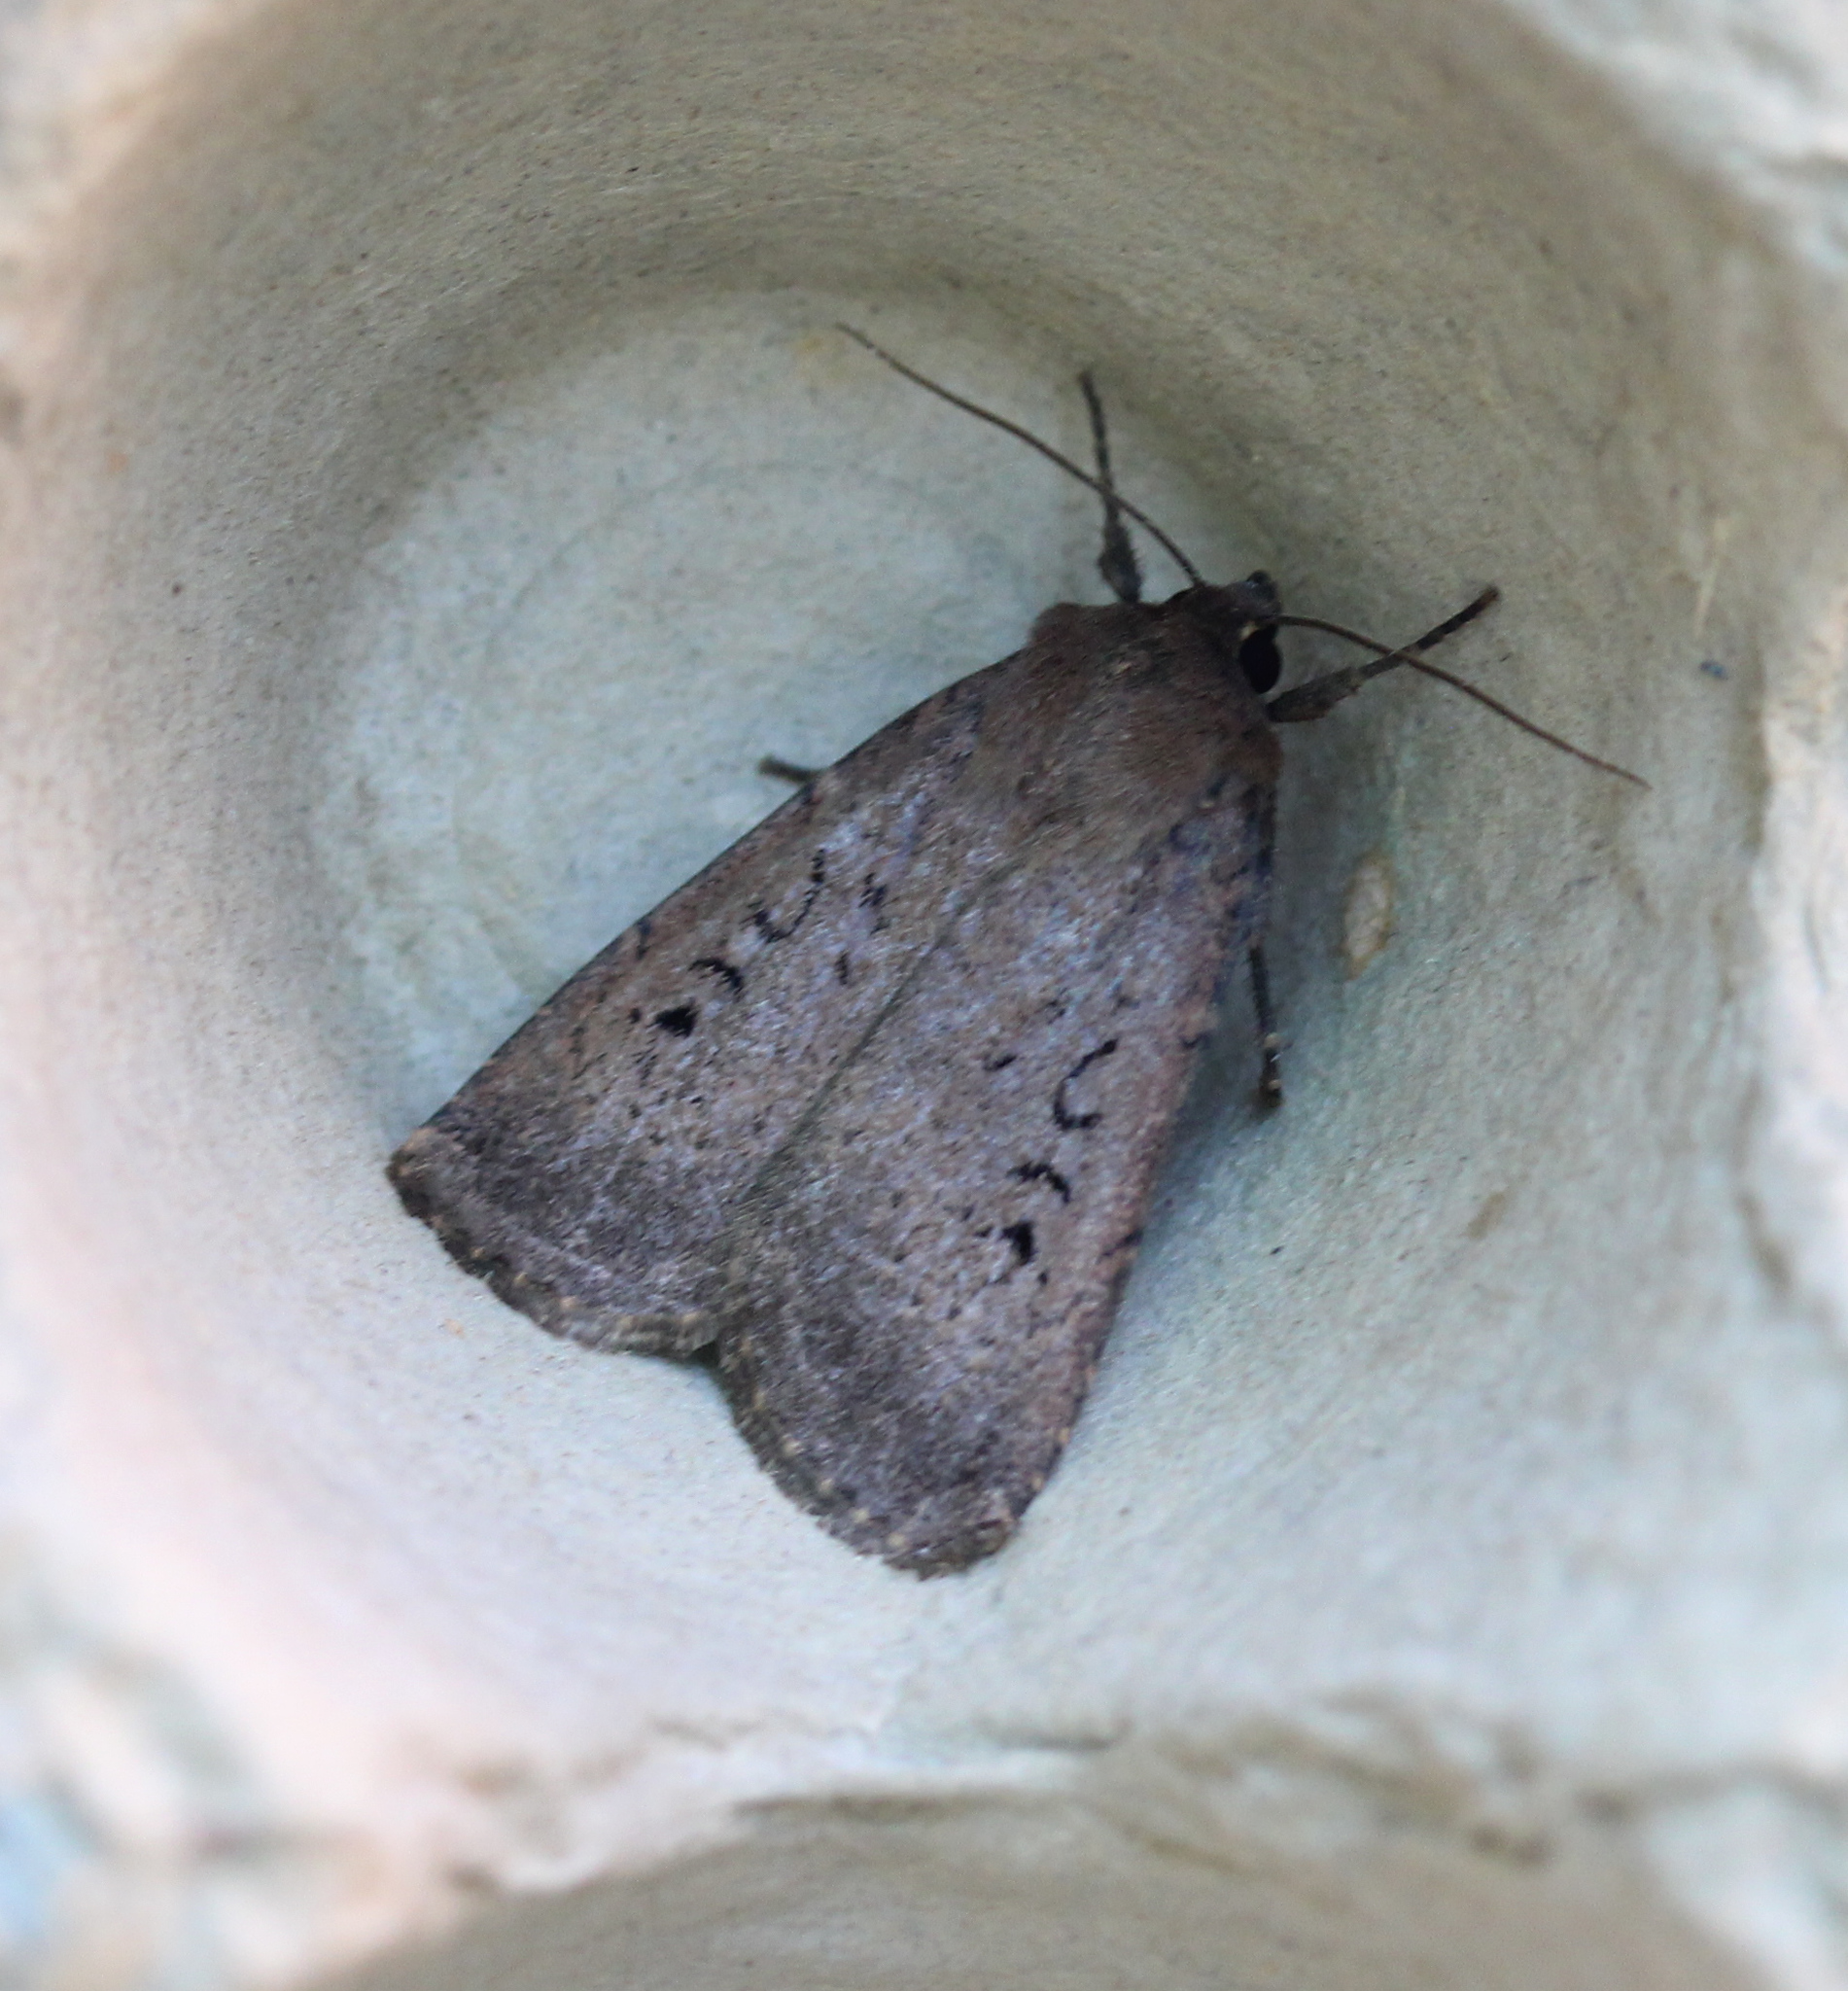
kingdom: Animalia
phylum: Arthropoda
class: Insecta
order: Lepidoptera
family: Noctuidae
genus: Graphiphora
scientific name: Graphiphora augur
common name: Double dart
